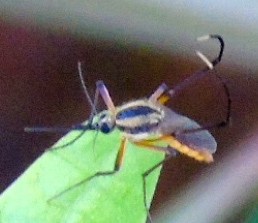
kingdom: Animalia
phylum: Arthropoda
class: Insecta
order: Diptera
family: Culicidae
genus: Psorophora
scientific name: Psorophora longipalpus
